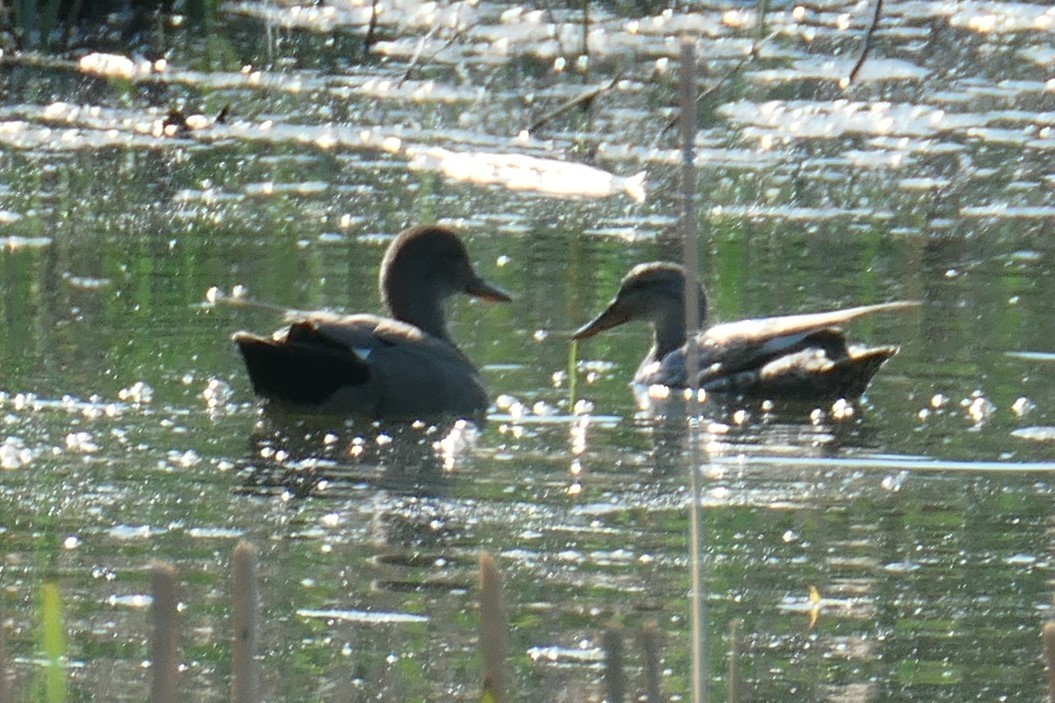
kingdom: Animalia
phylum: Chordata
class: Aves
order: Anseriformes
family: Anatidae
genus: Mareca
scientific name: Mareca strepera
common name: Gadwall
